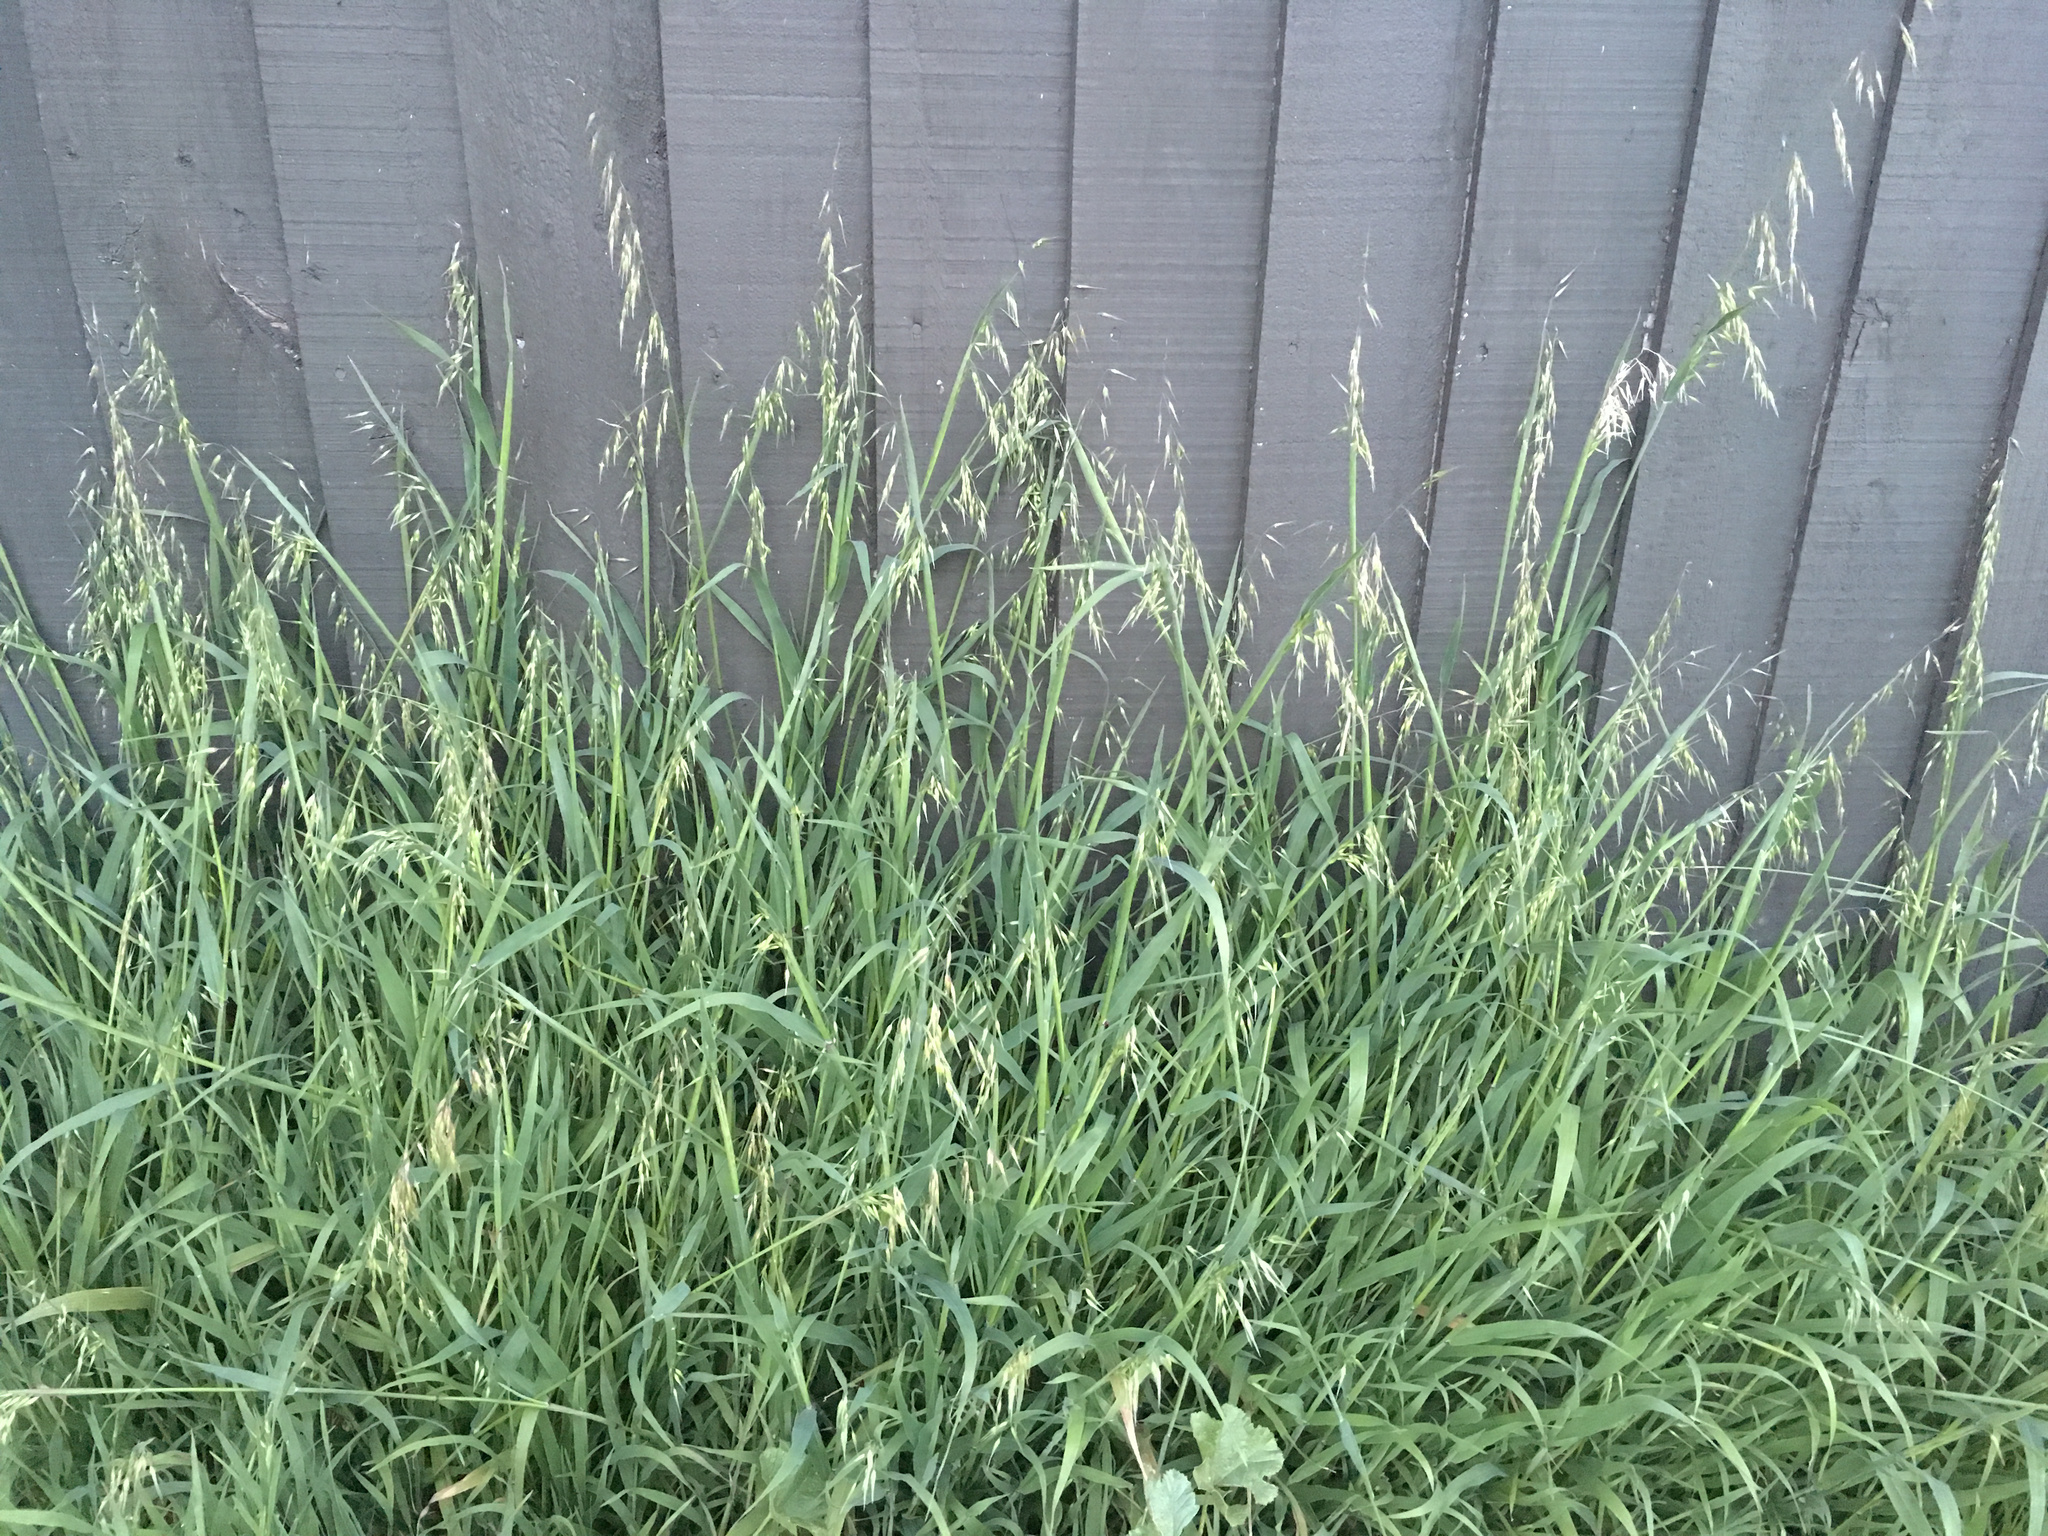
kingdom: Plantae
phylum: Tracheophyta
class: Liliopsida
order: Poales
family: Poaceae
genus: Ehrharta
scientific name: Ehrharta longiflora
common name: Longflowered veldtgrass
